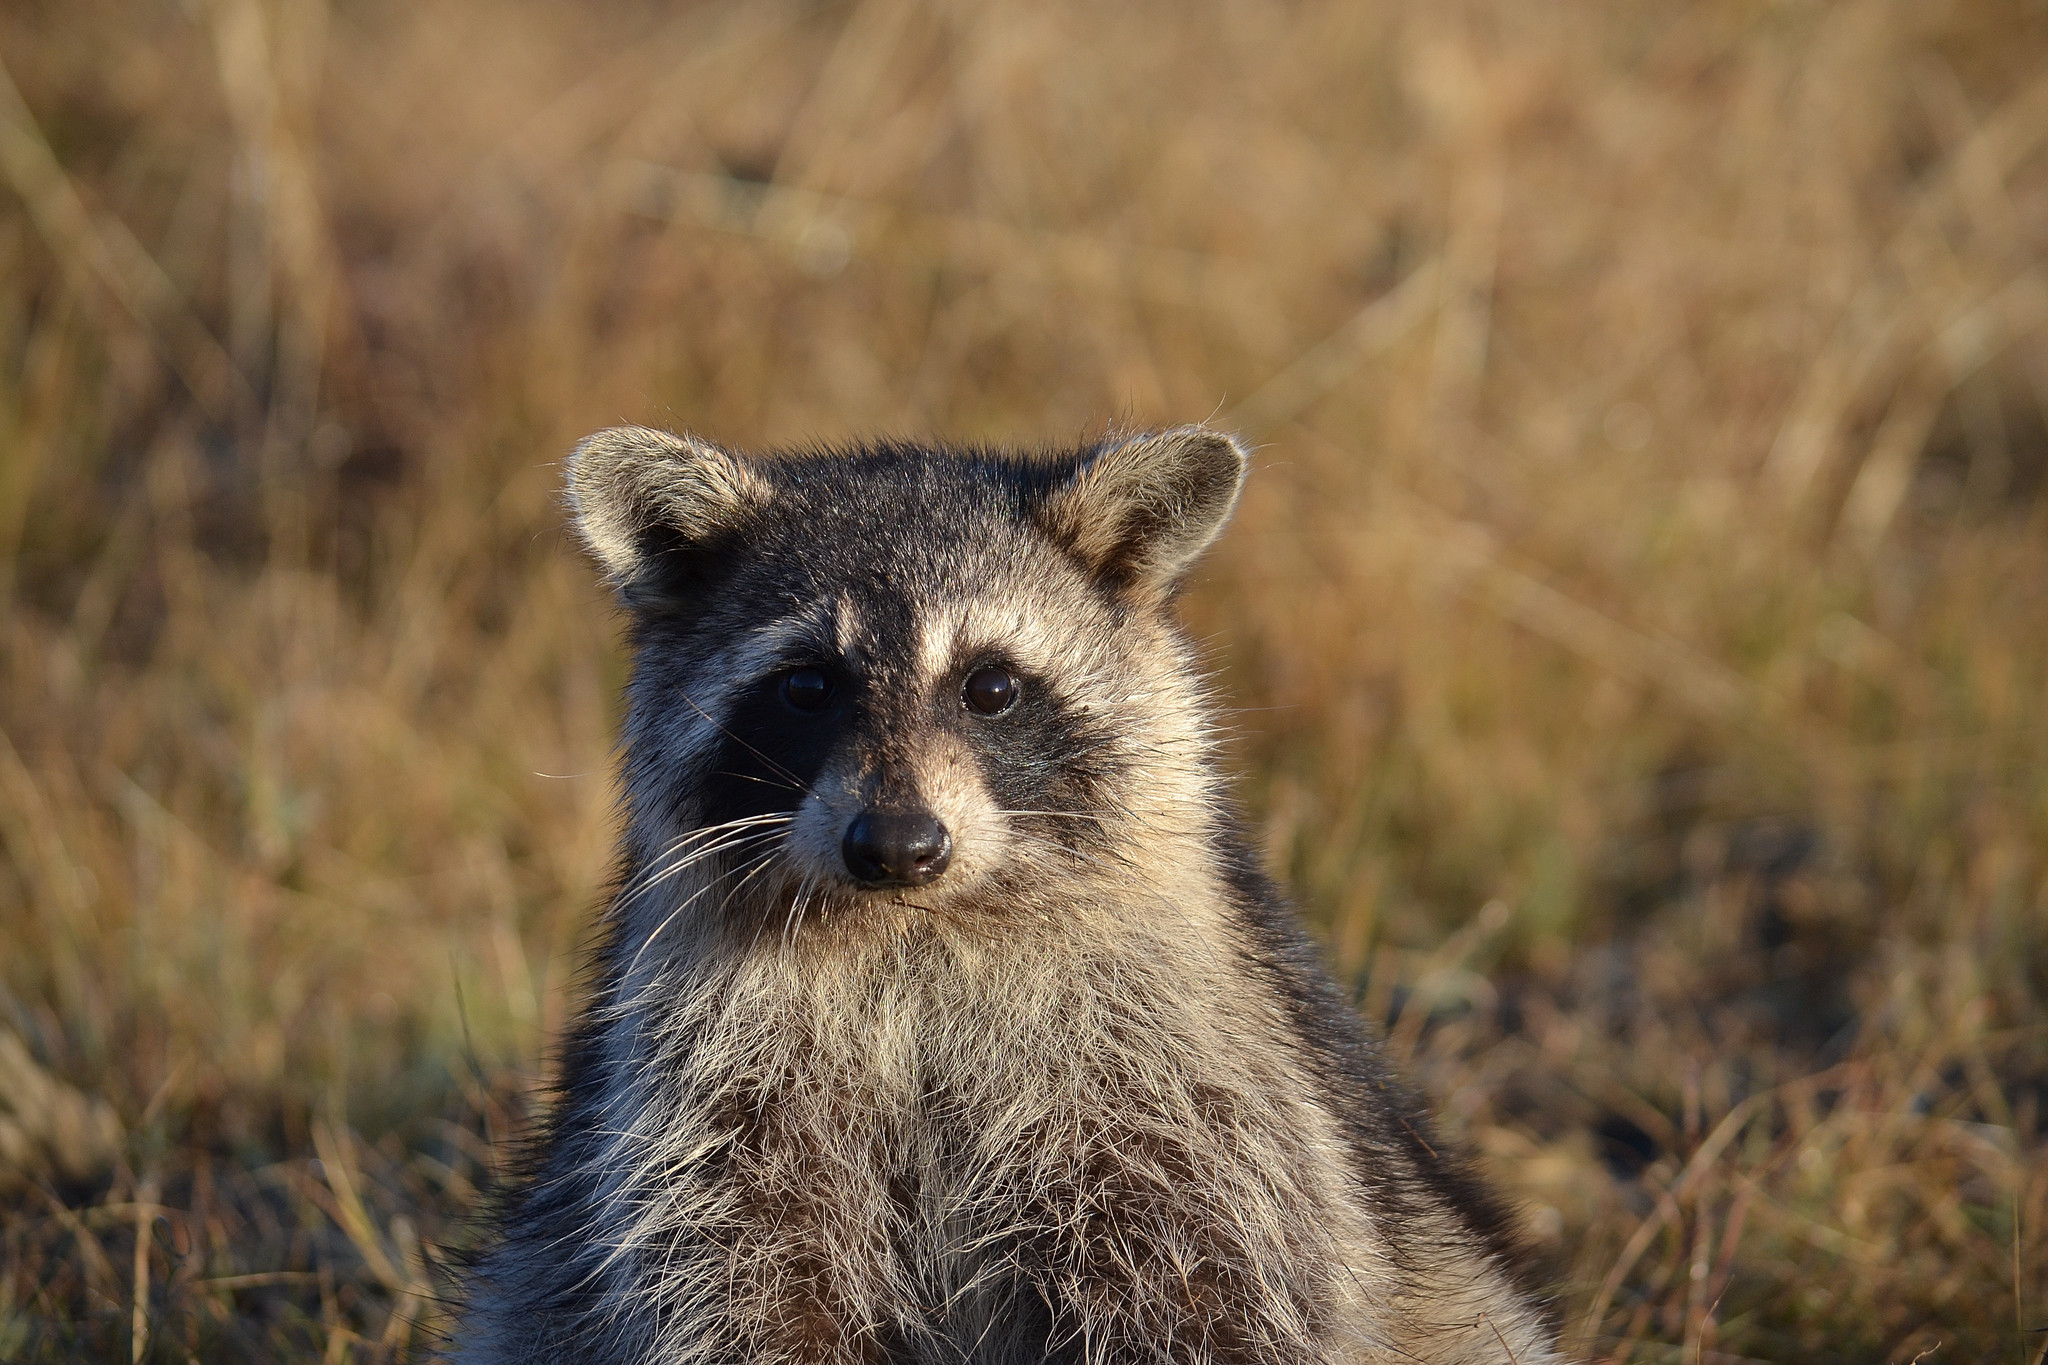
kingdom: Animalia
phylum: Chordata
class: Mammalia
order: Carnivora
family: Procyonidae
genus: Procyon
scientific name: Procyon lotor
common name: Raccoon
